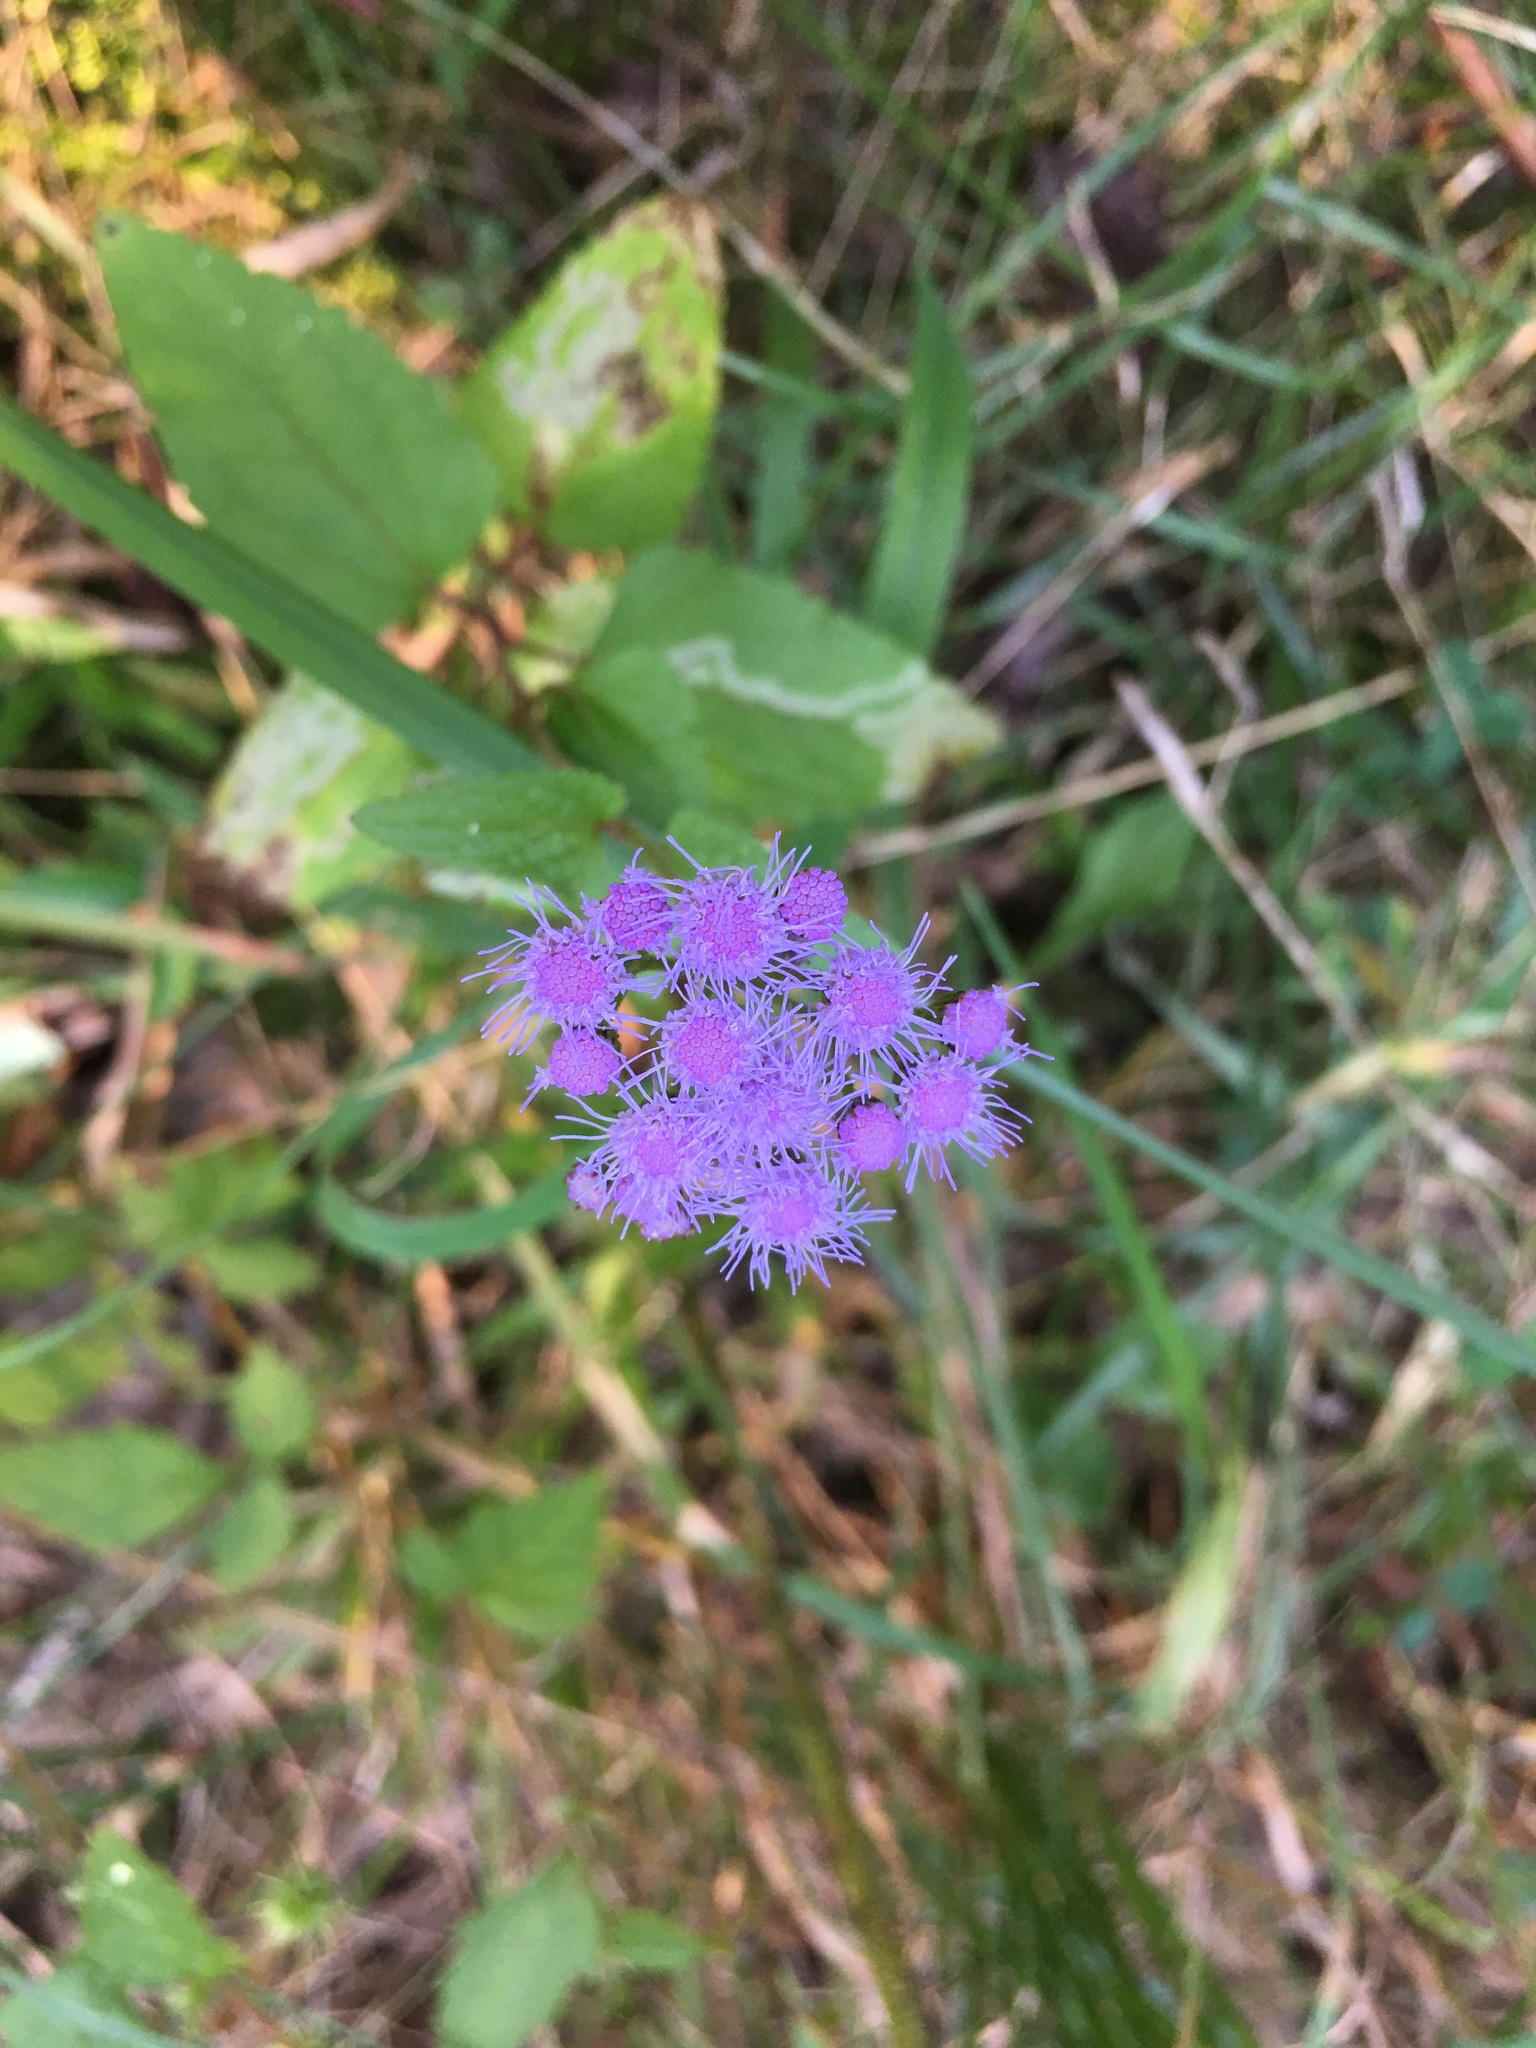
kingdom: Plantae
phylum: Tracheophyta
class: Magnoliopsida
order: Asterales
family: Asteraceae
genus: Conoclinium
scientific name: Conoclinium coelestinum
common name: Blue mistflower
